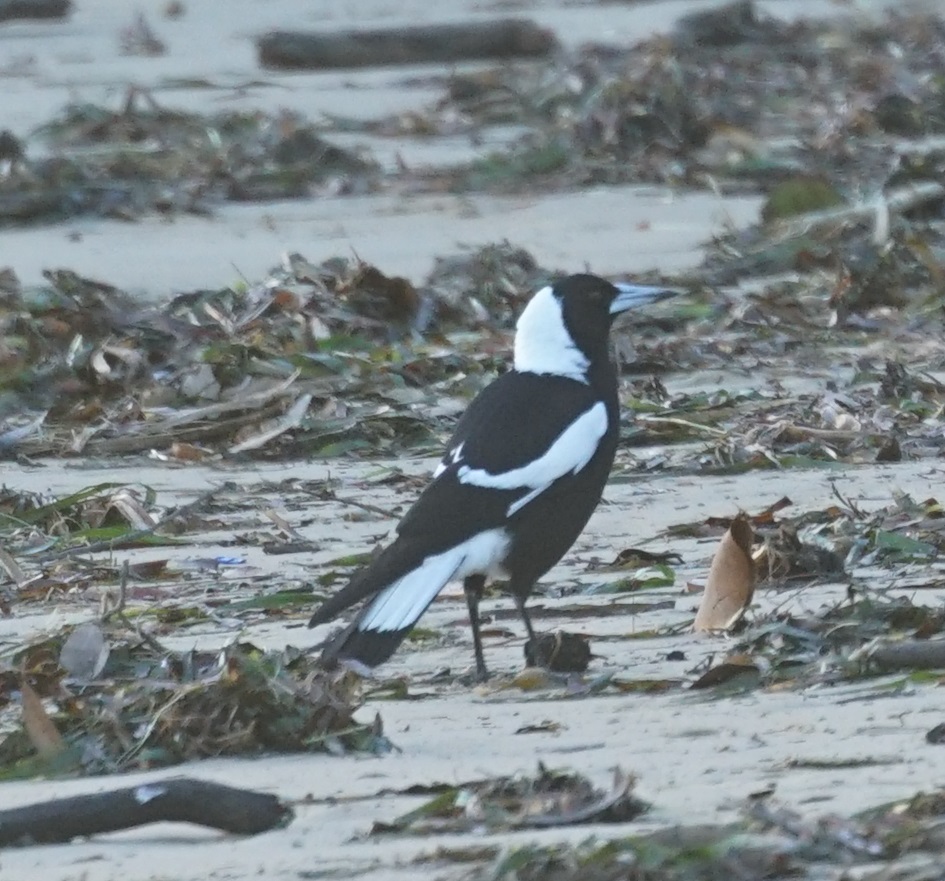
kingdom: Animalia
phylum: Chordata
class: Aves
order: Passeriformes
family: Cracticidae
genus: Gymnorhina
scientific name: Gymnorhina tibicen
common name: Australian magpie
